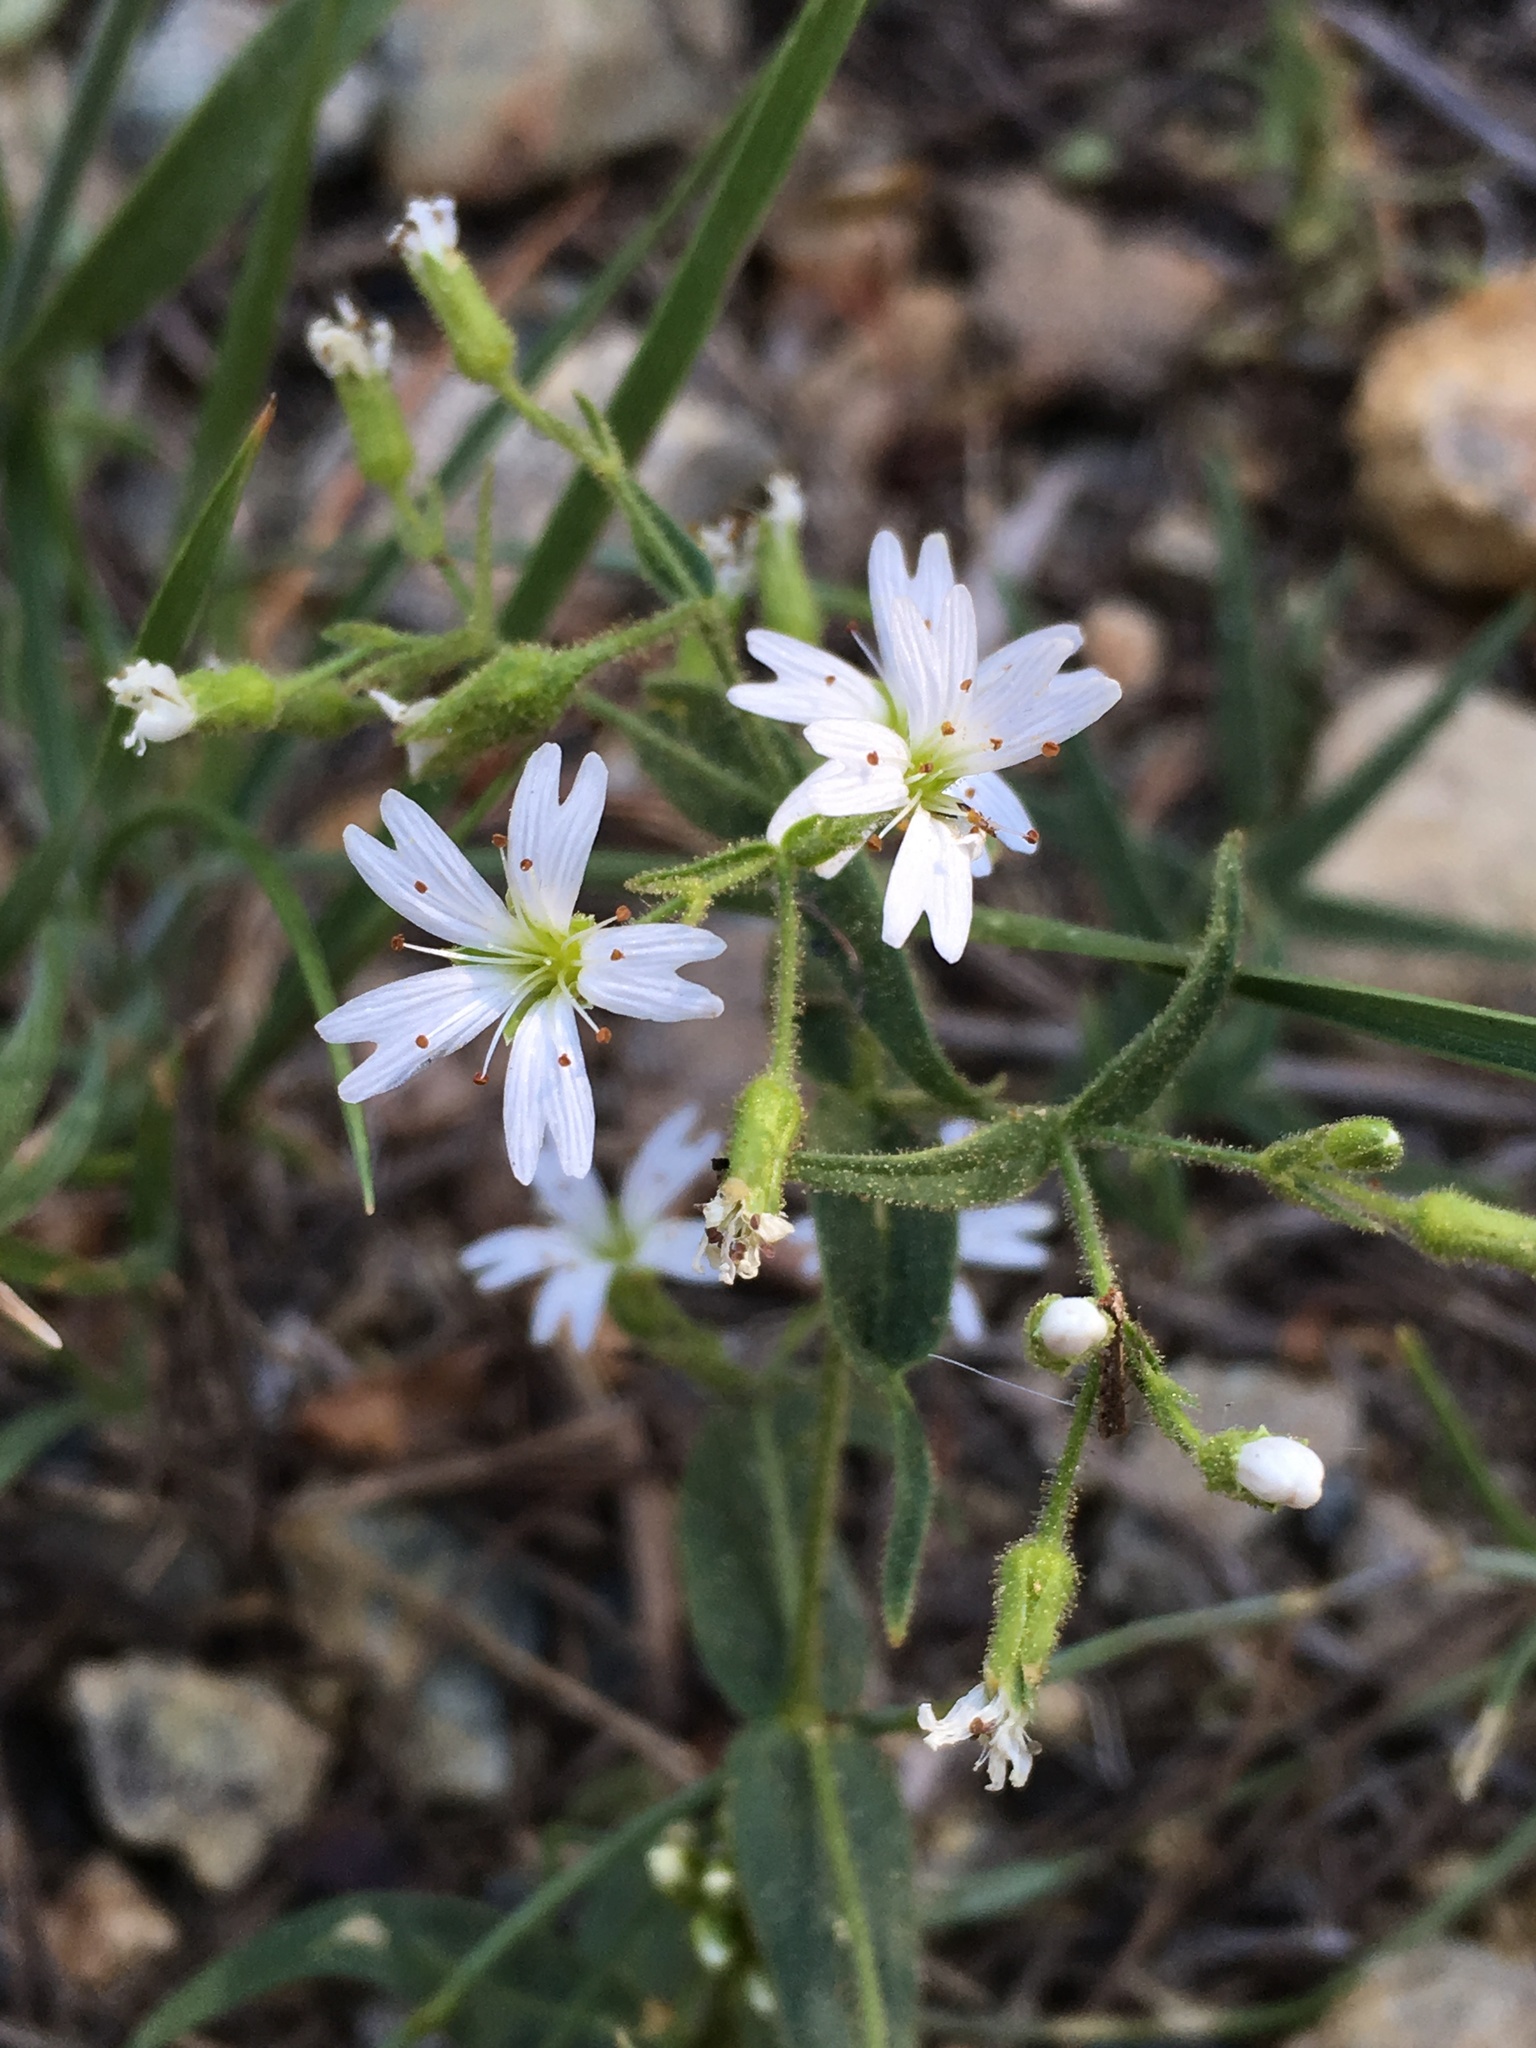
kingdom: Plantae
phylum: Tracheophyta
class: Magnoliopsida
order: Caryophyllales
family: Caryophyllaceae
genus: Schizotechium
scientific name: Schizotechium jamesianum
